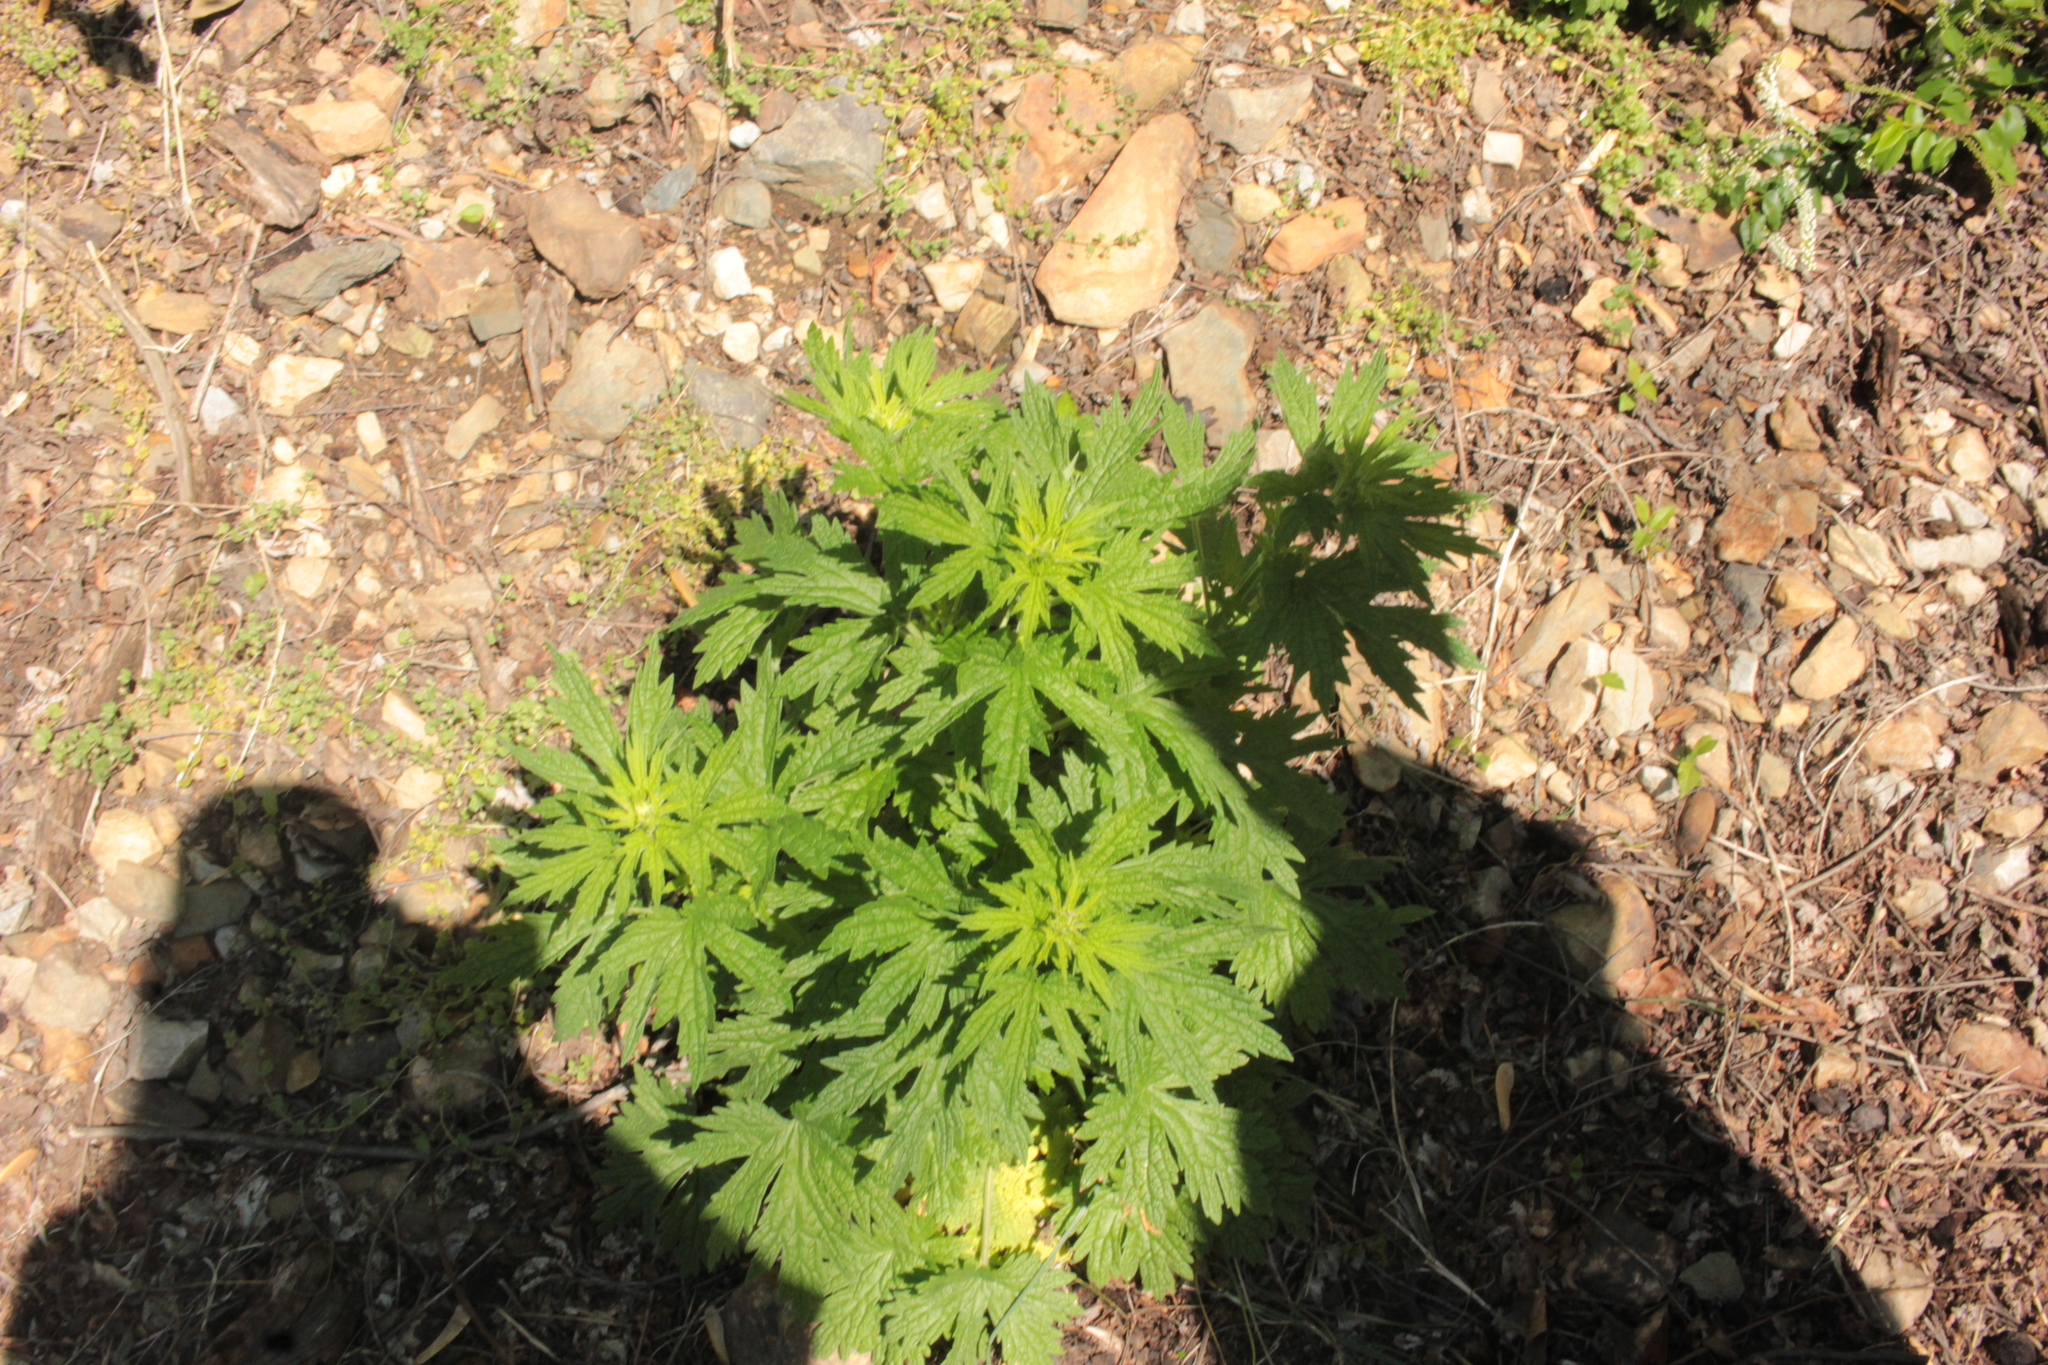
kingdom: Plantae
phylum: Tracheophyta
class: Magnoliopsida
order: Lamiales
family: Lamiaceae
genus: Leonurus
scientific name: Leonurus cardiaca
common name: Motherwort
